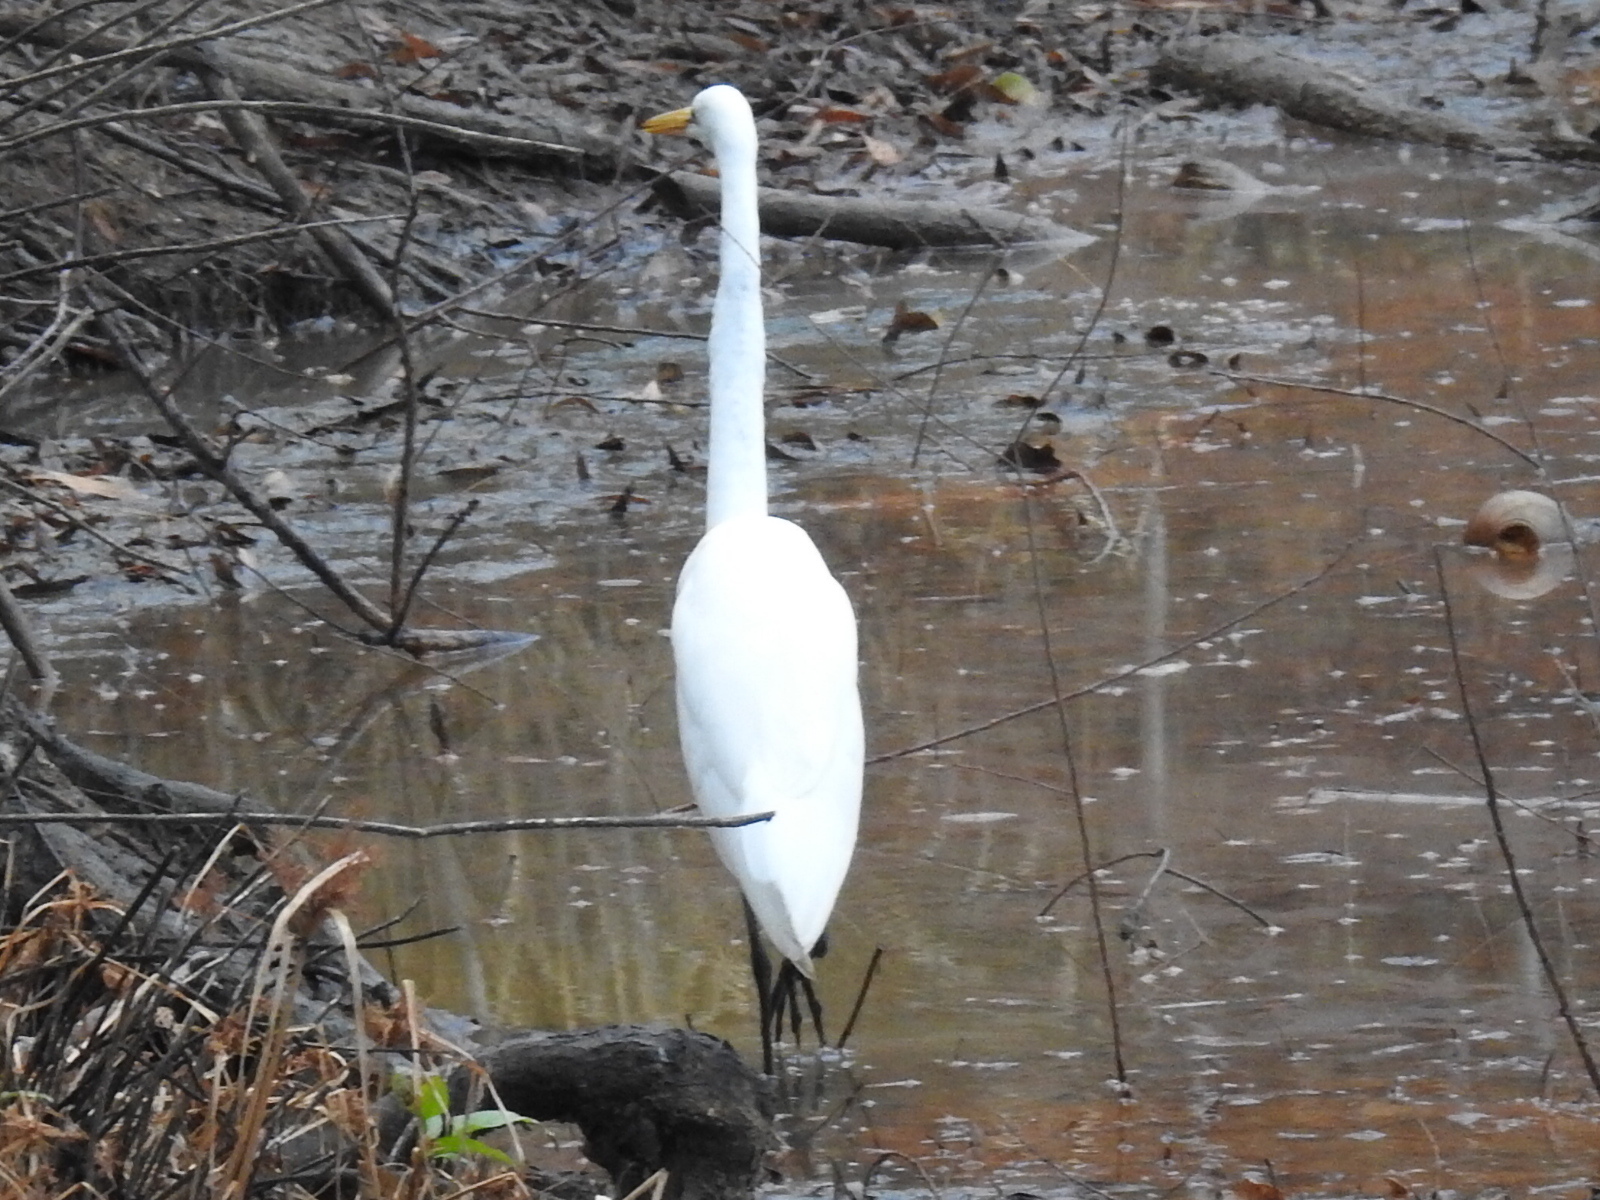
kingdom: Animalia
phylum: Chordata
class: Aves
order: Pelecaniformes
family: Ardeidae
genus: Ardea
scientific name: Ardea alba
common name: Great egret
